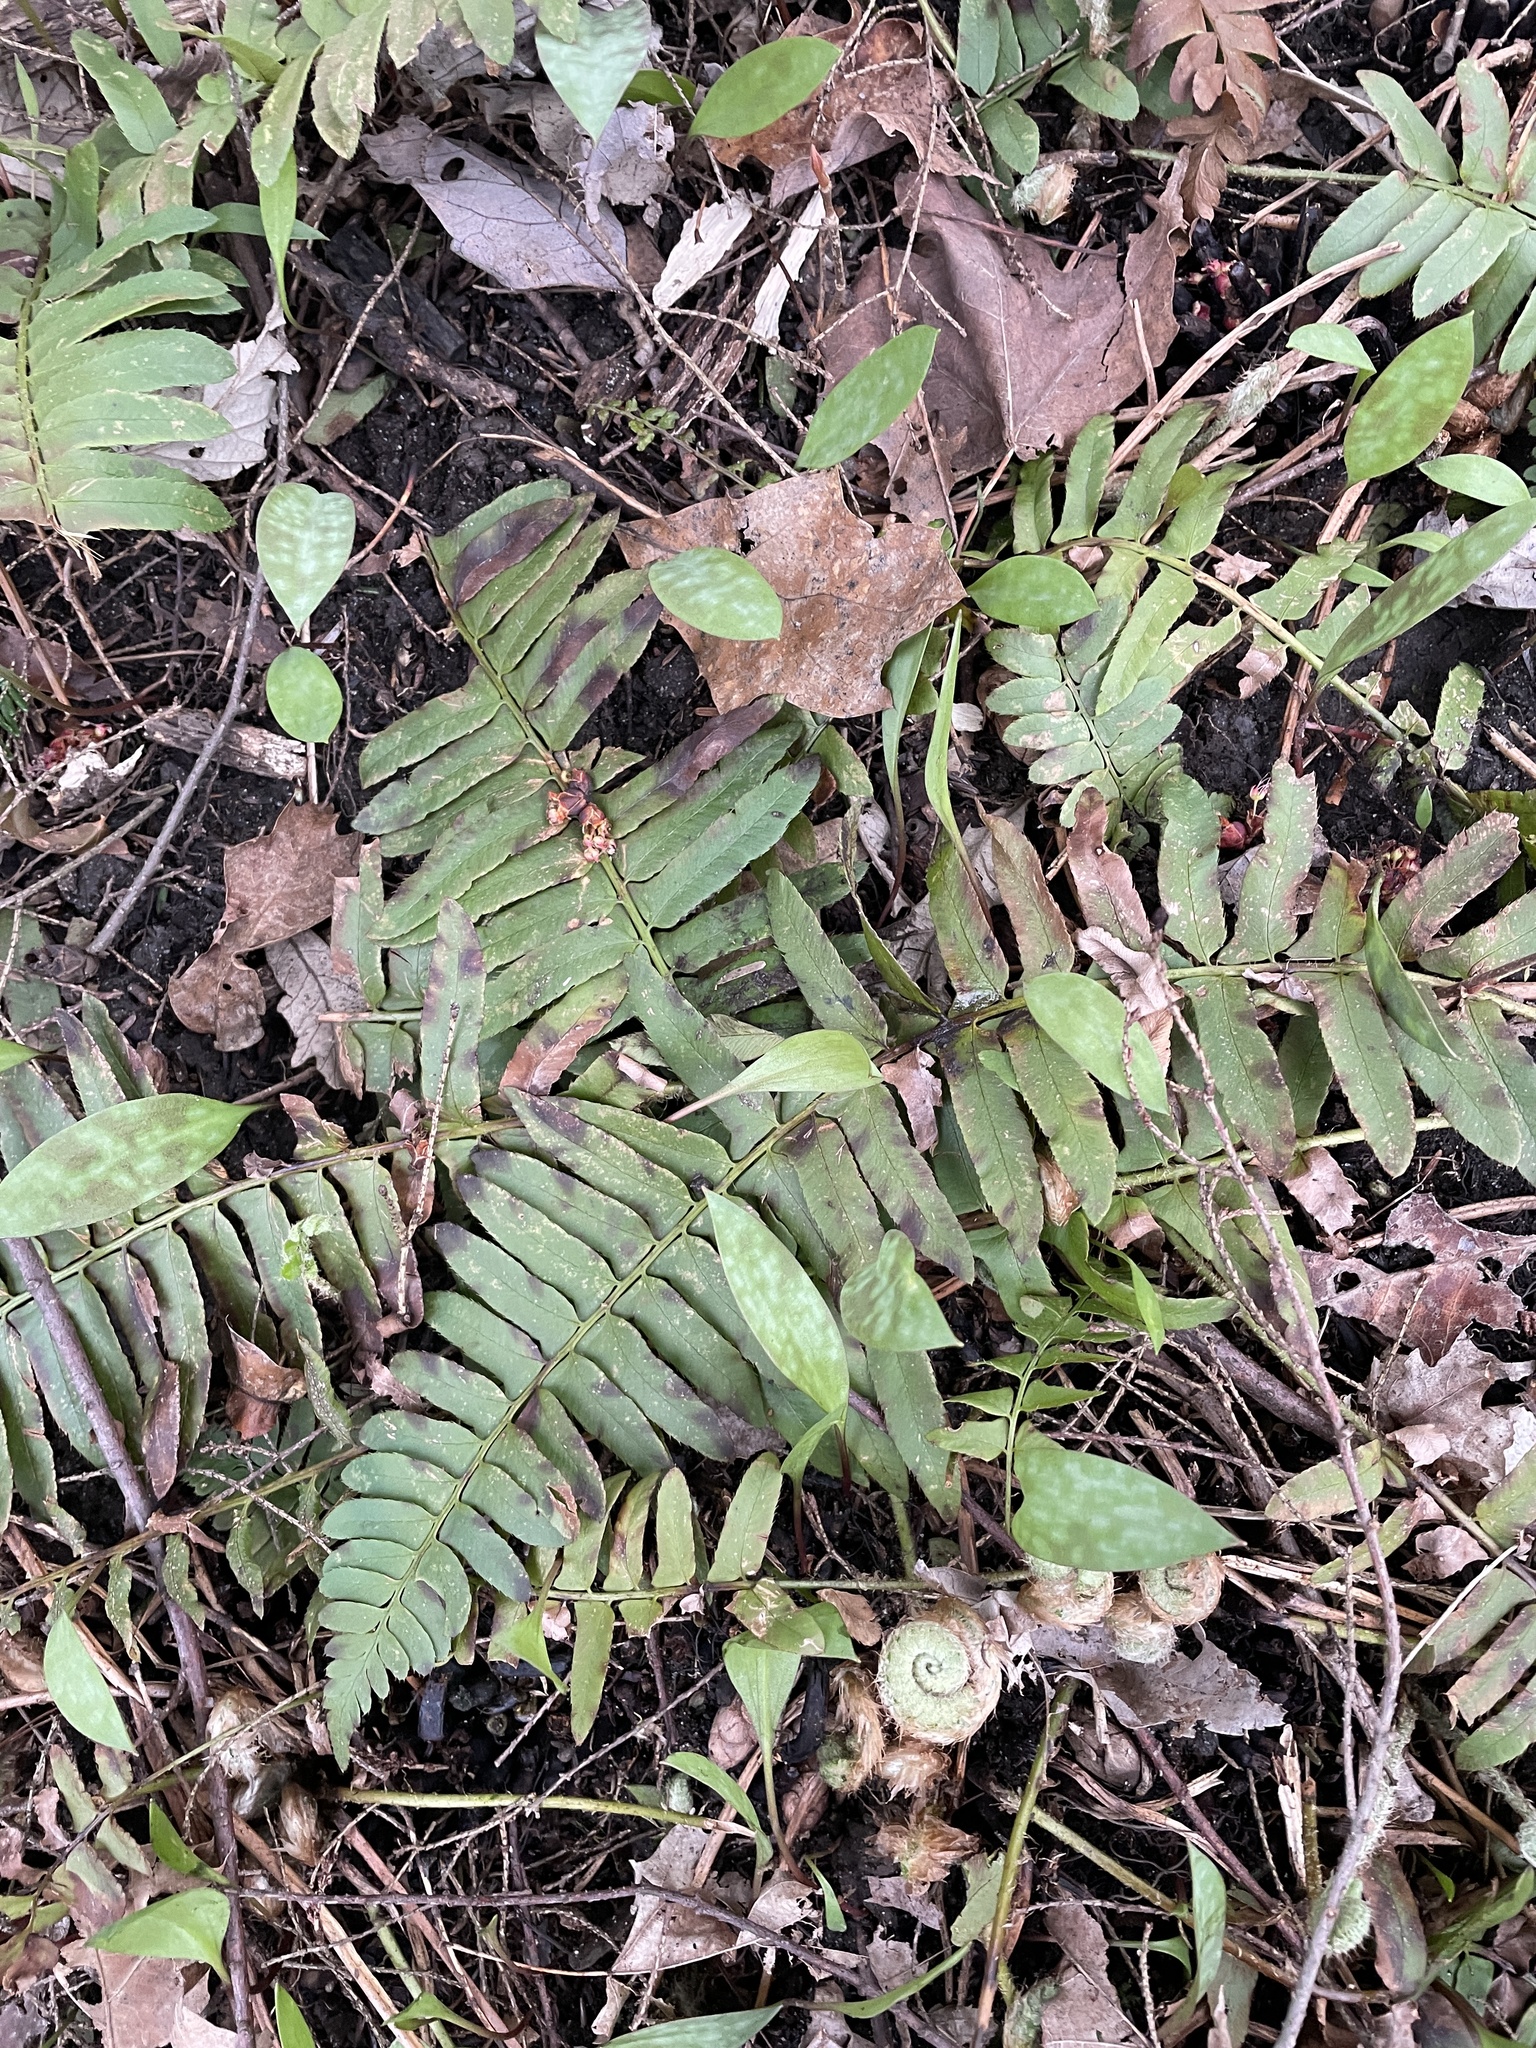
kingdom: Plantae
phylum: Tracheophyta
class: Polypodiopsida
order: Polypodiales
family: Dryopteridaceae
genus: Polystichum
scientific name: Polystichum acrostichoides
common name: Christmas fern
